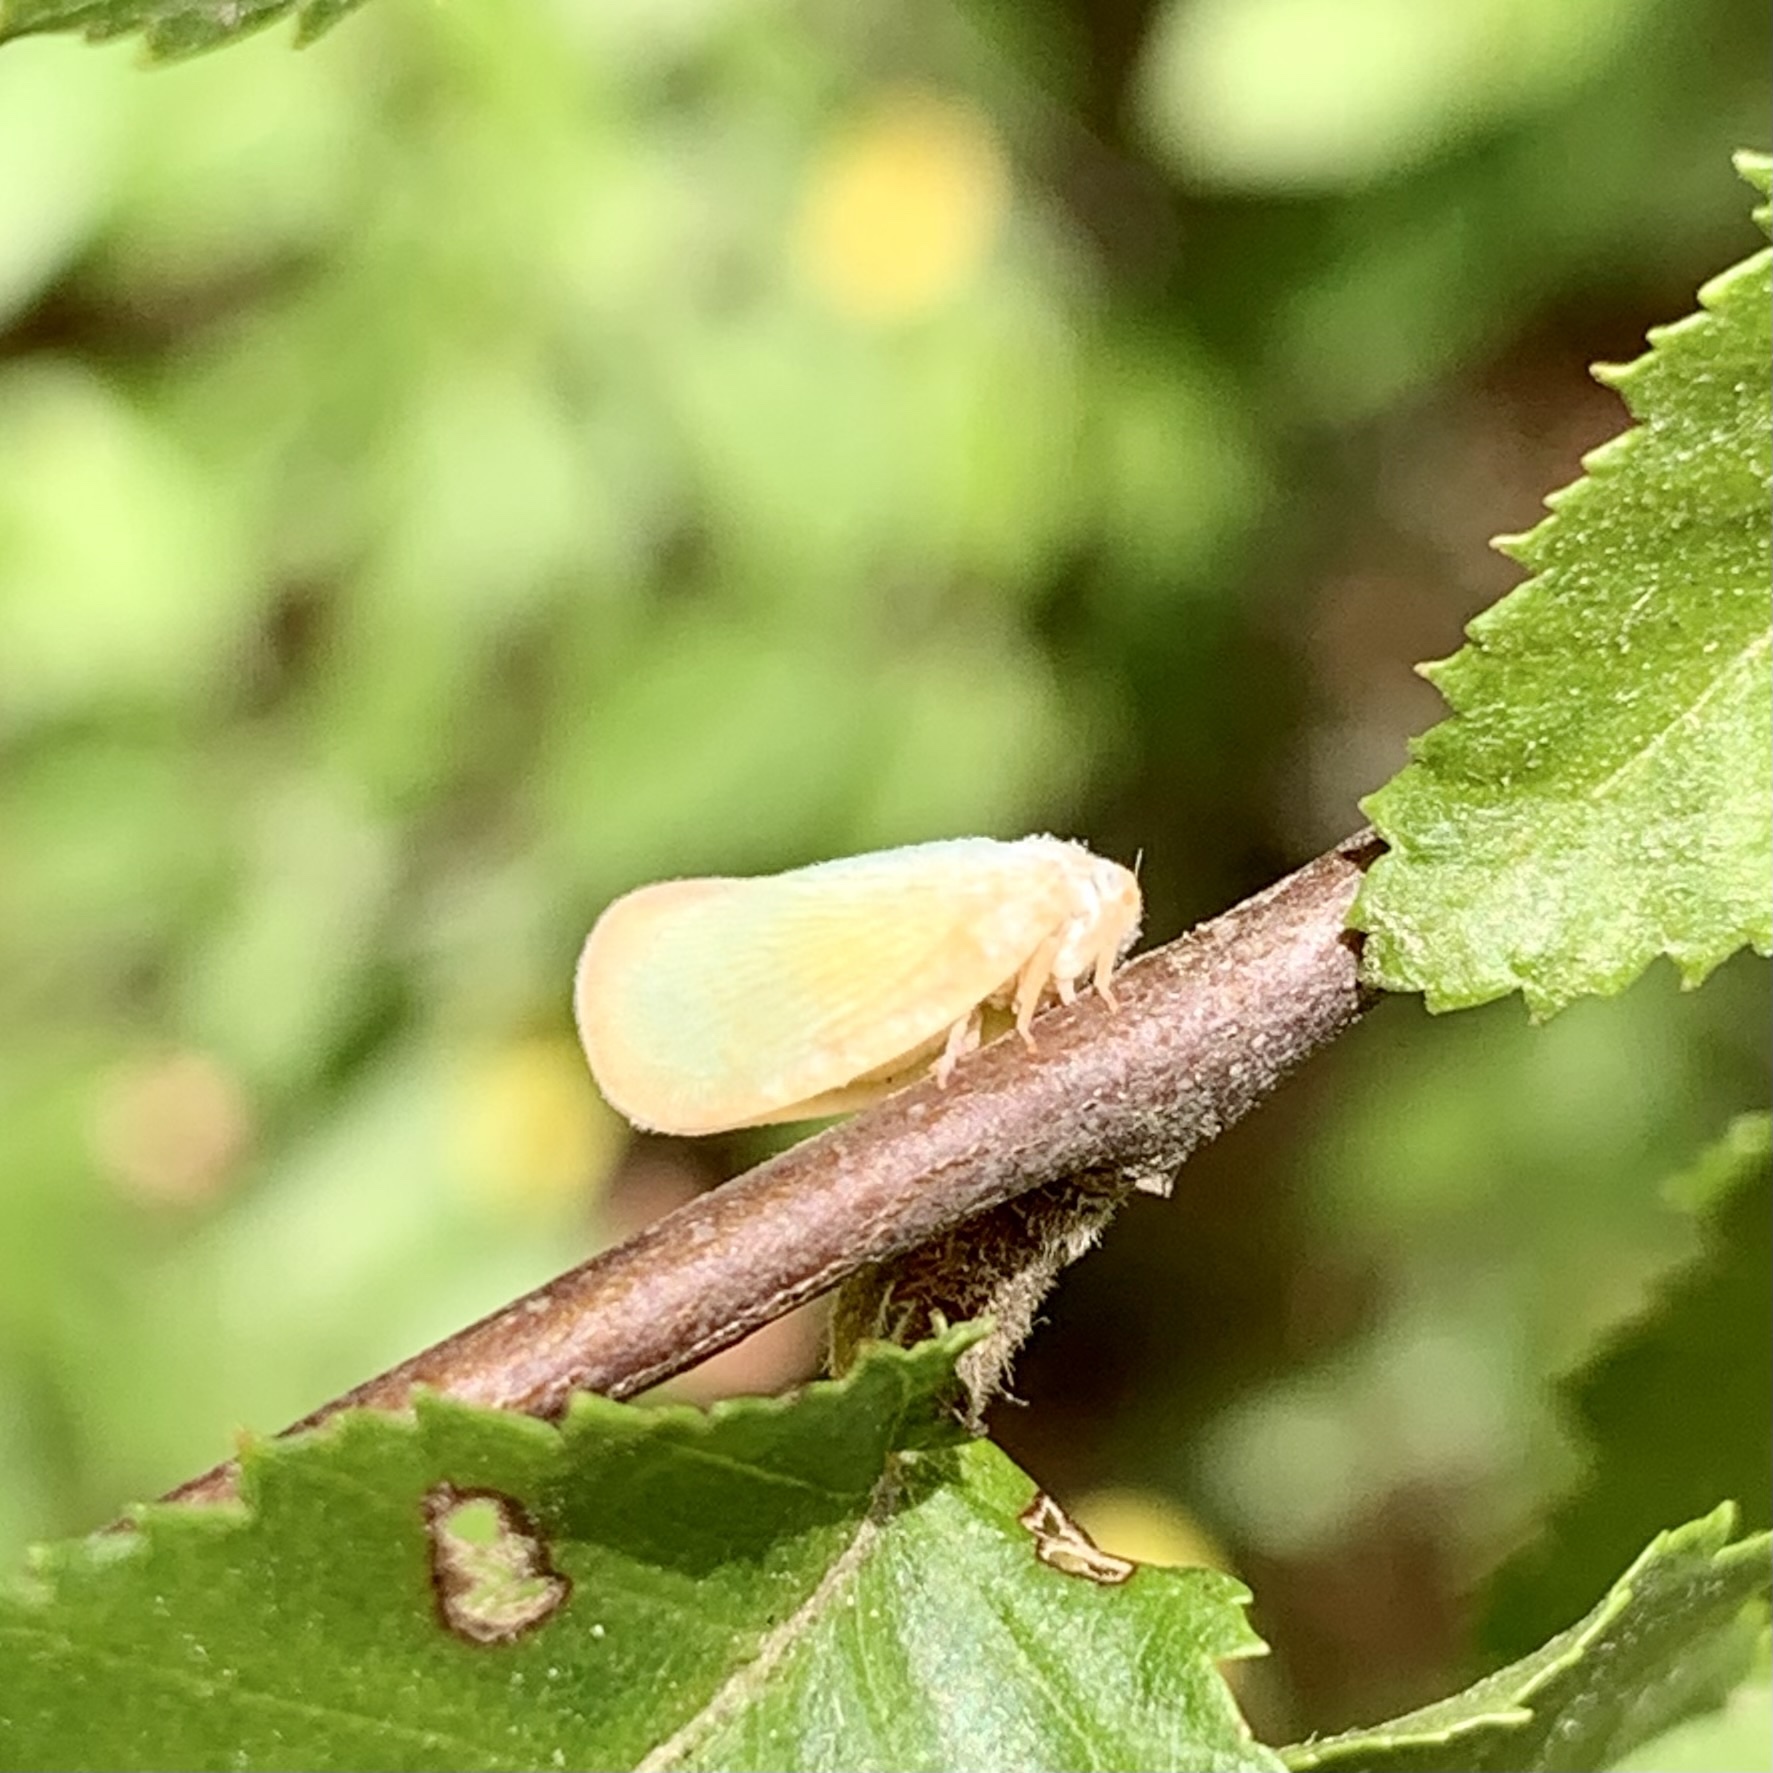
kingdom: Animalia
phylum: Arthropoda
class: Insecta
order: Hemiptera
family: Flatidae
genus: Ormenoides
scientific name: Ormenoides venusta
